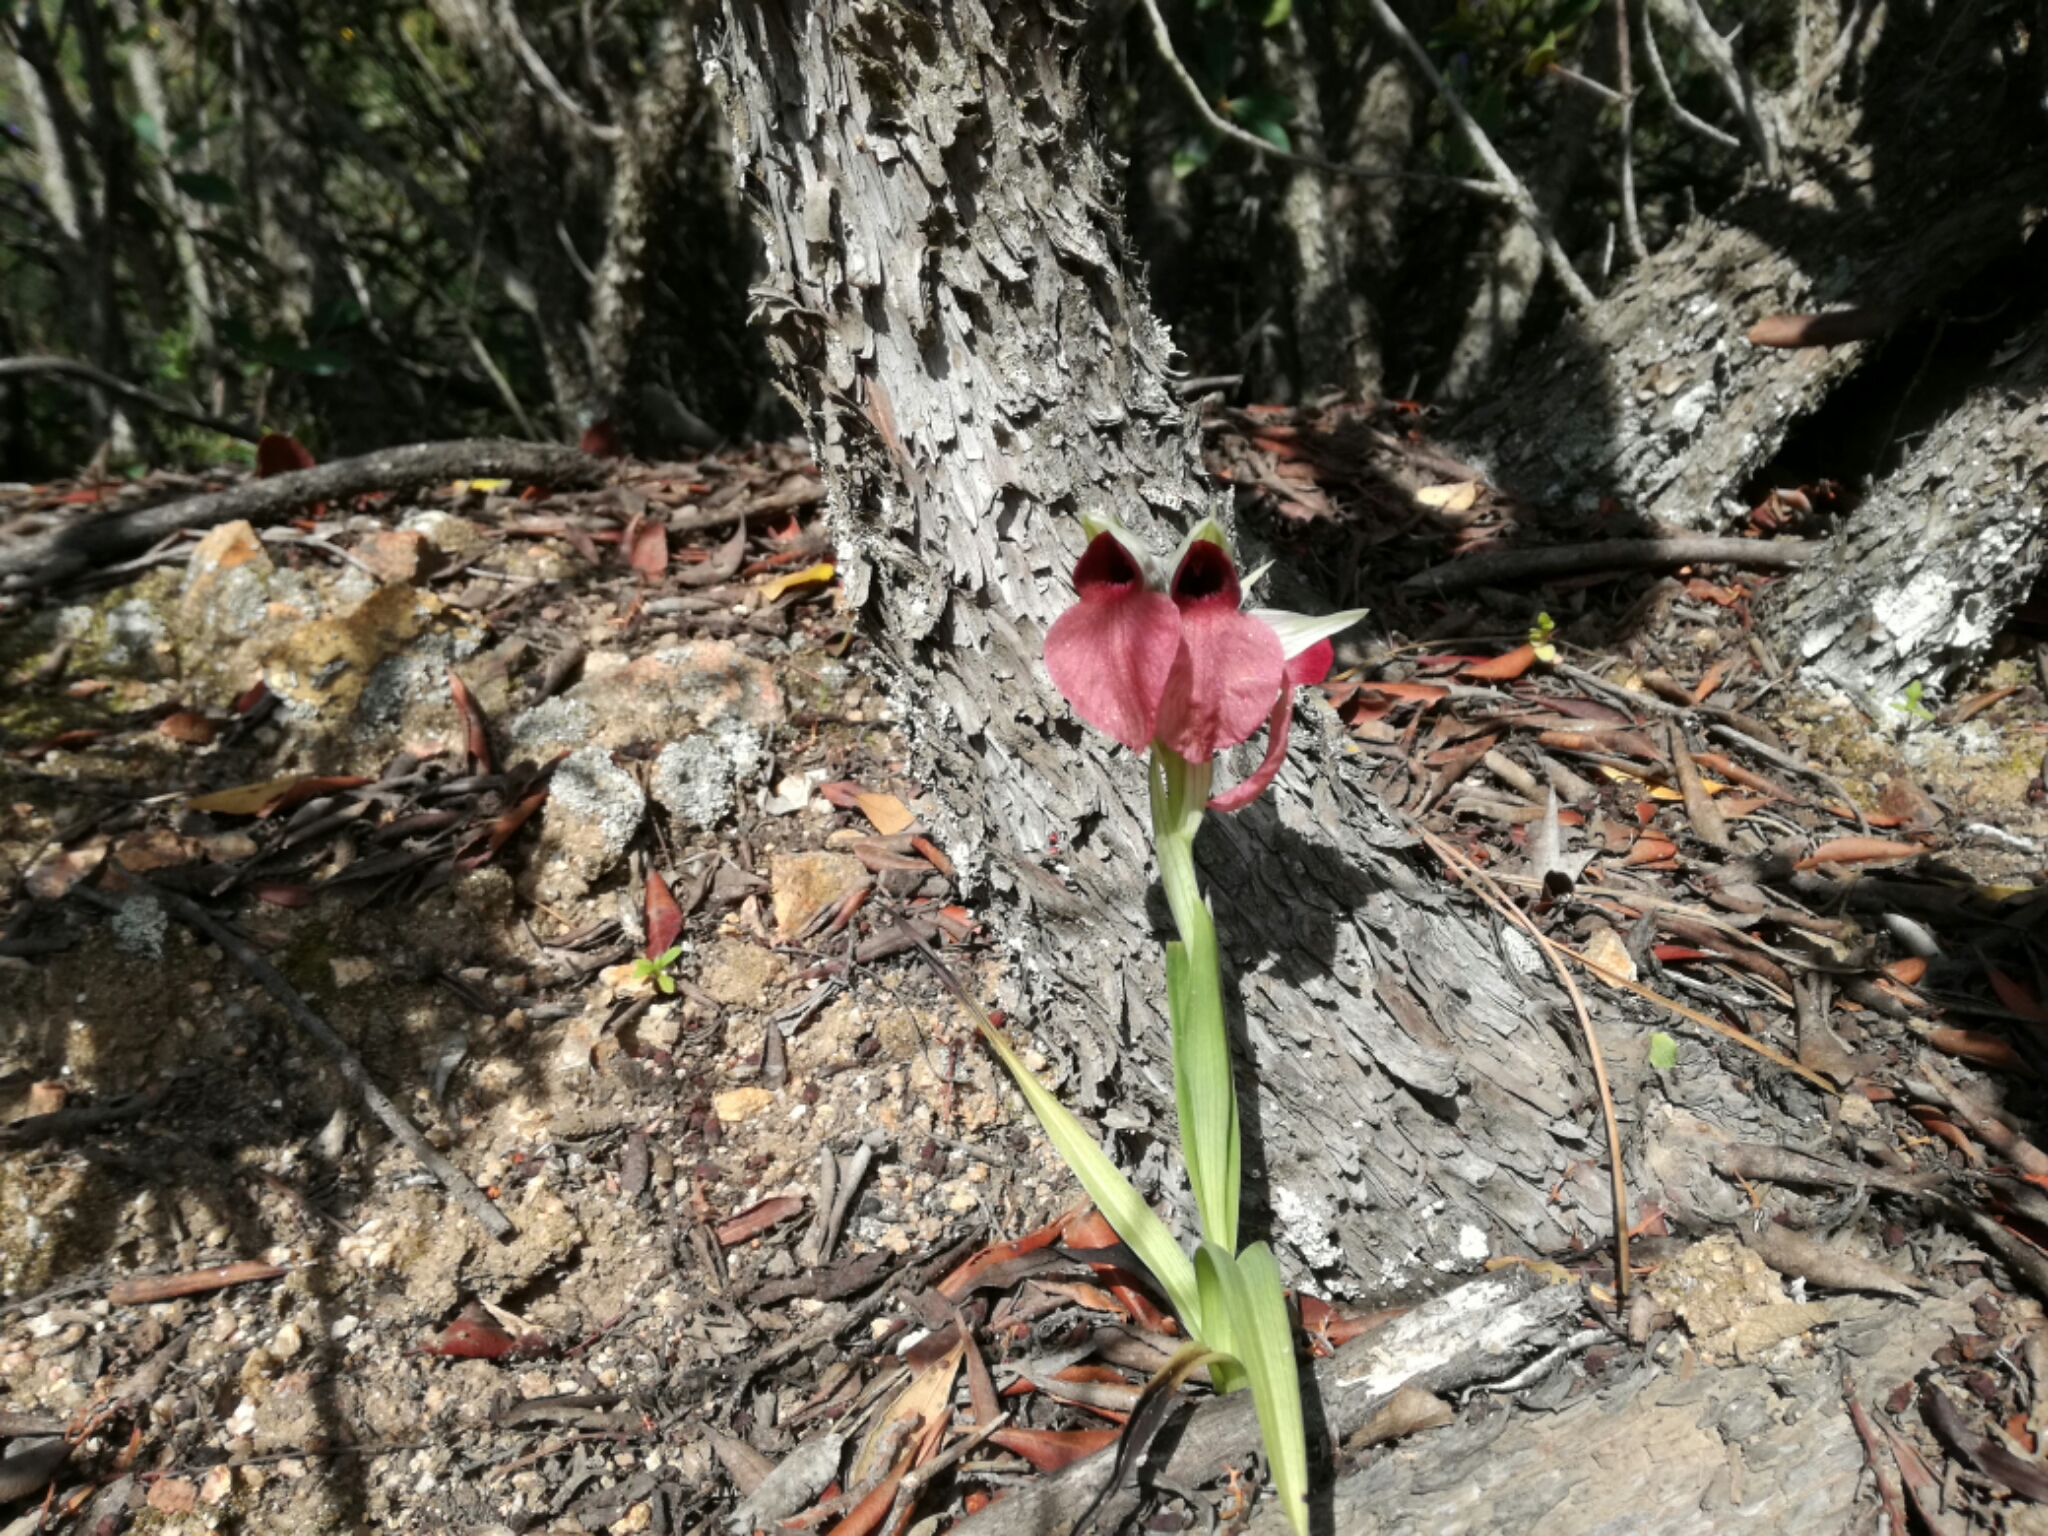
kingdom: Plantae
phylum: Tracheophyta
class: Liliopsida
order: Asparagales
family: Orchidaceae
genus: Serapias
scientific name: Serapias cordigera
